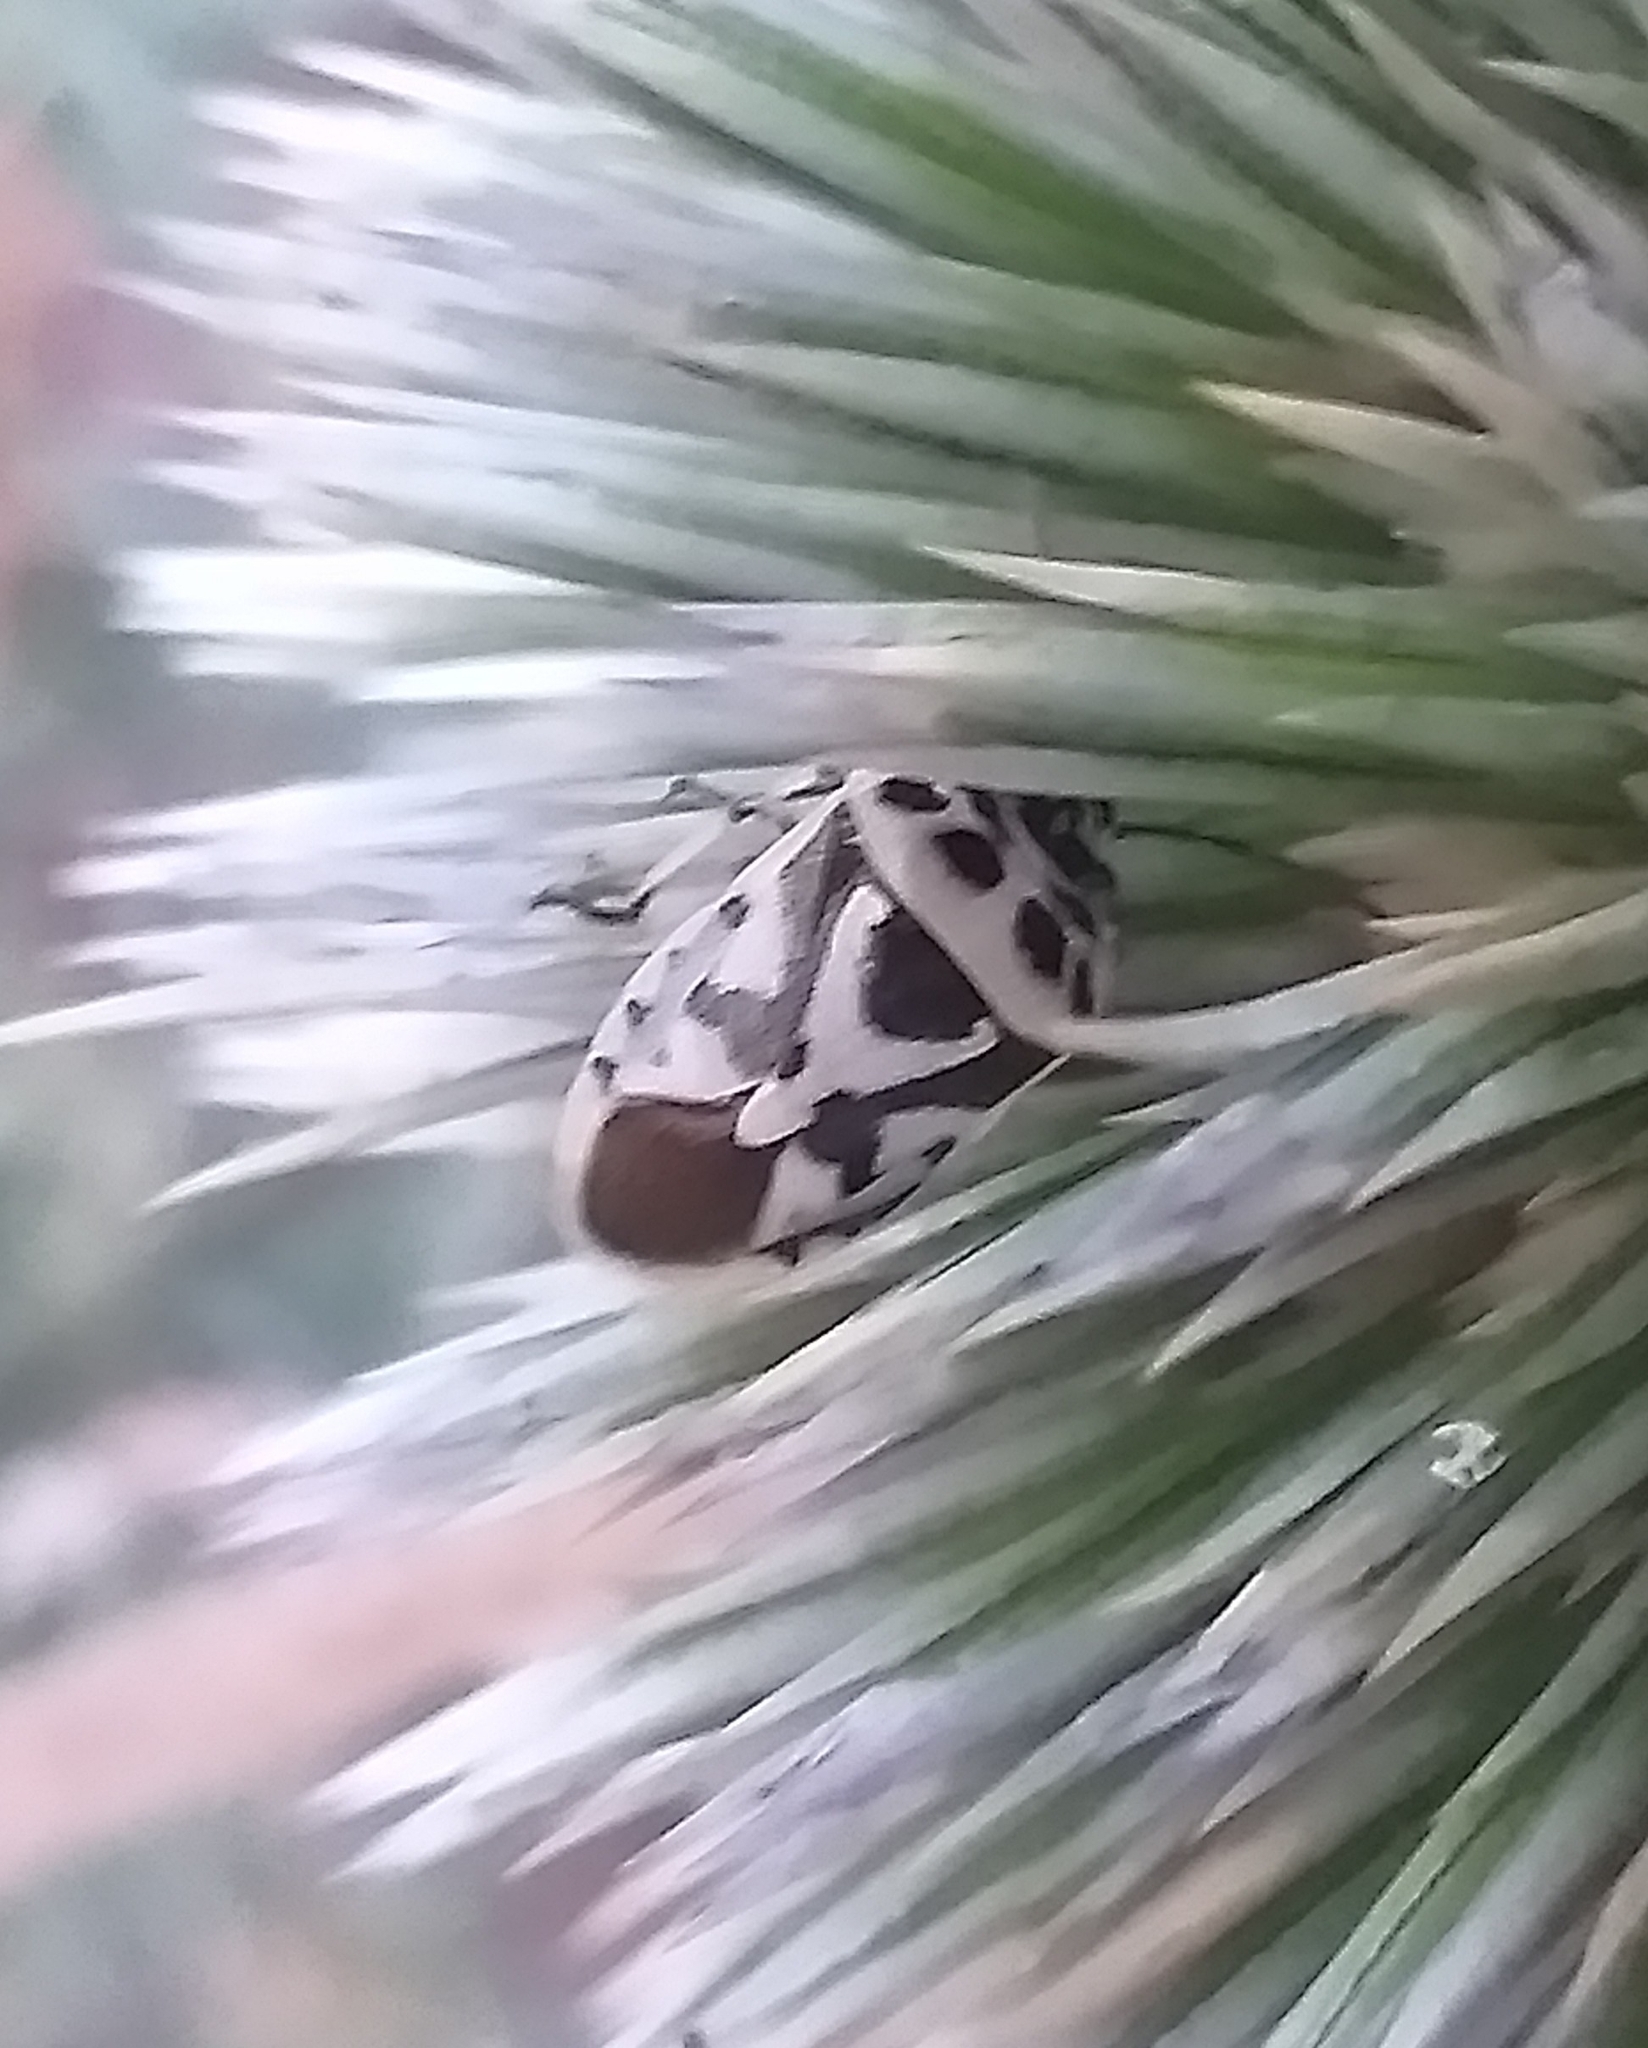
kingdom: Animalia
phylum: Arthropoda
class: Insecta
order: Hemiptera
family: Pentatomidae
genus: Eurydema
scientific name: Eurydema ornata
